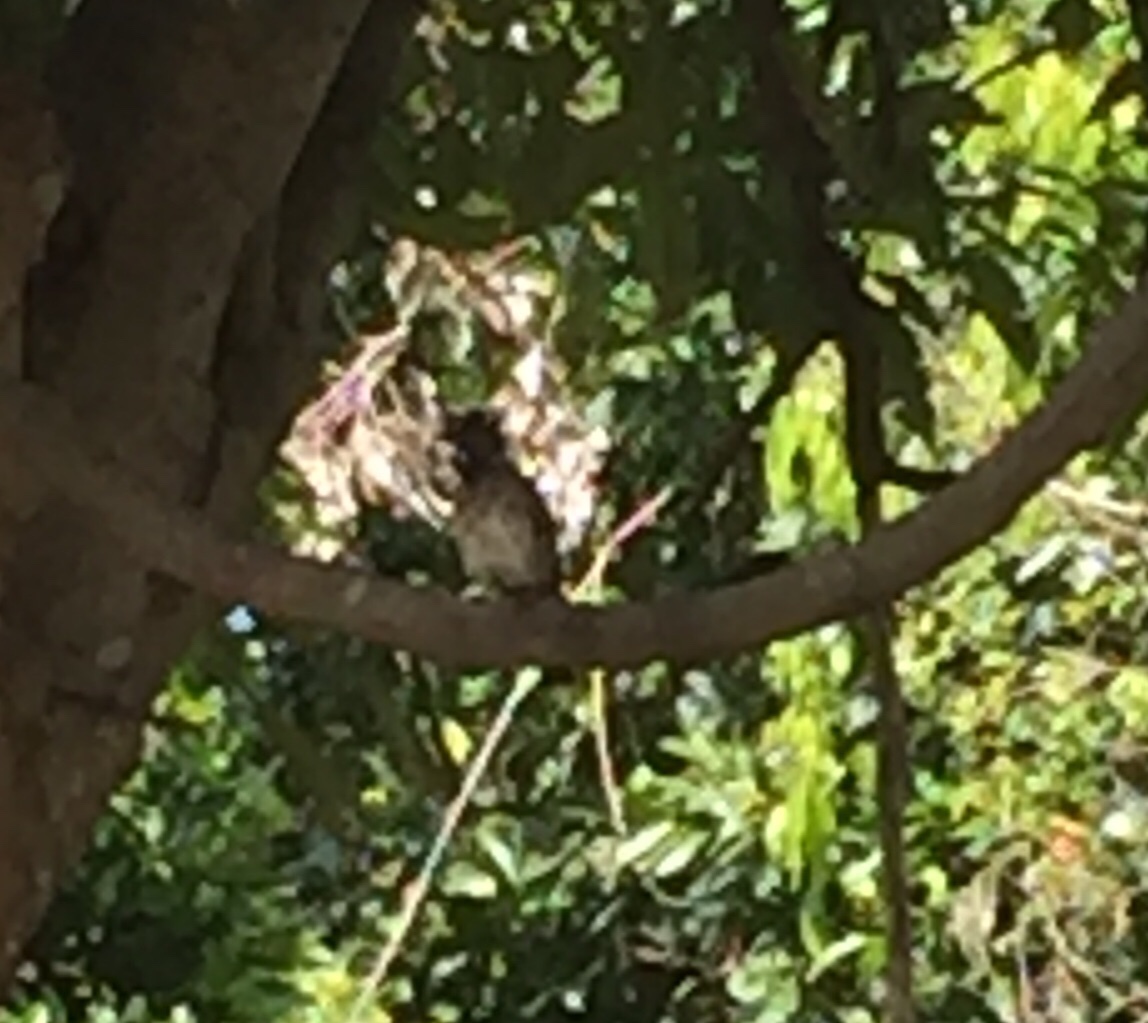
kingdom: Animalia
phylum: Chordata
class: Aves
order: Passeriformes
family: Pycnonotidae
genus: Pycnonotus
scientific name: Pycnonotus cafer
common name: Red-vented bulbul
